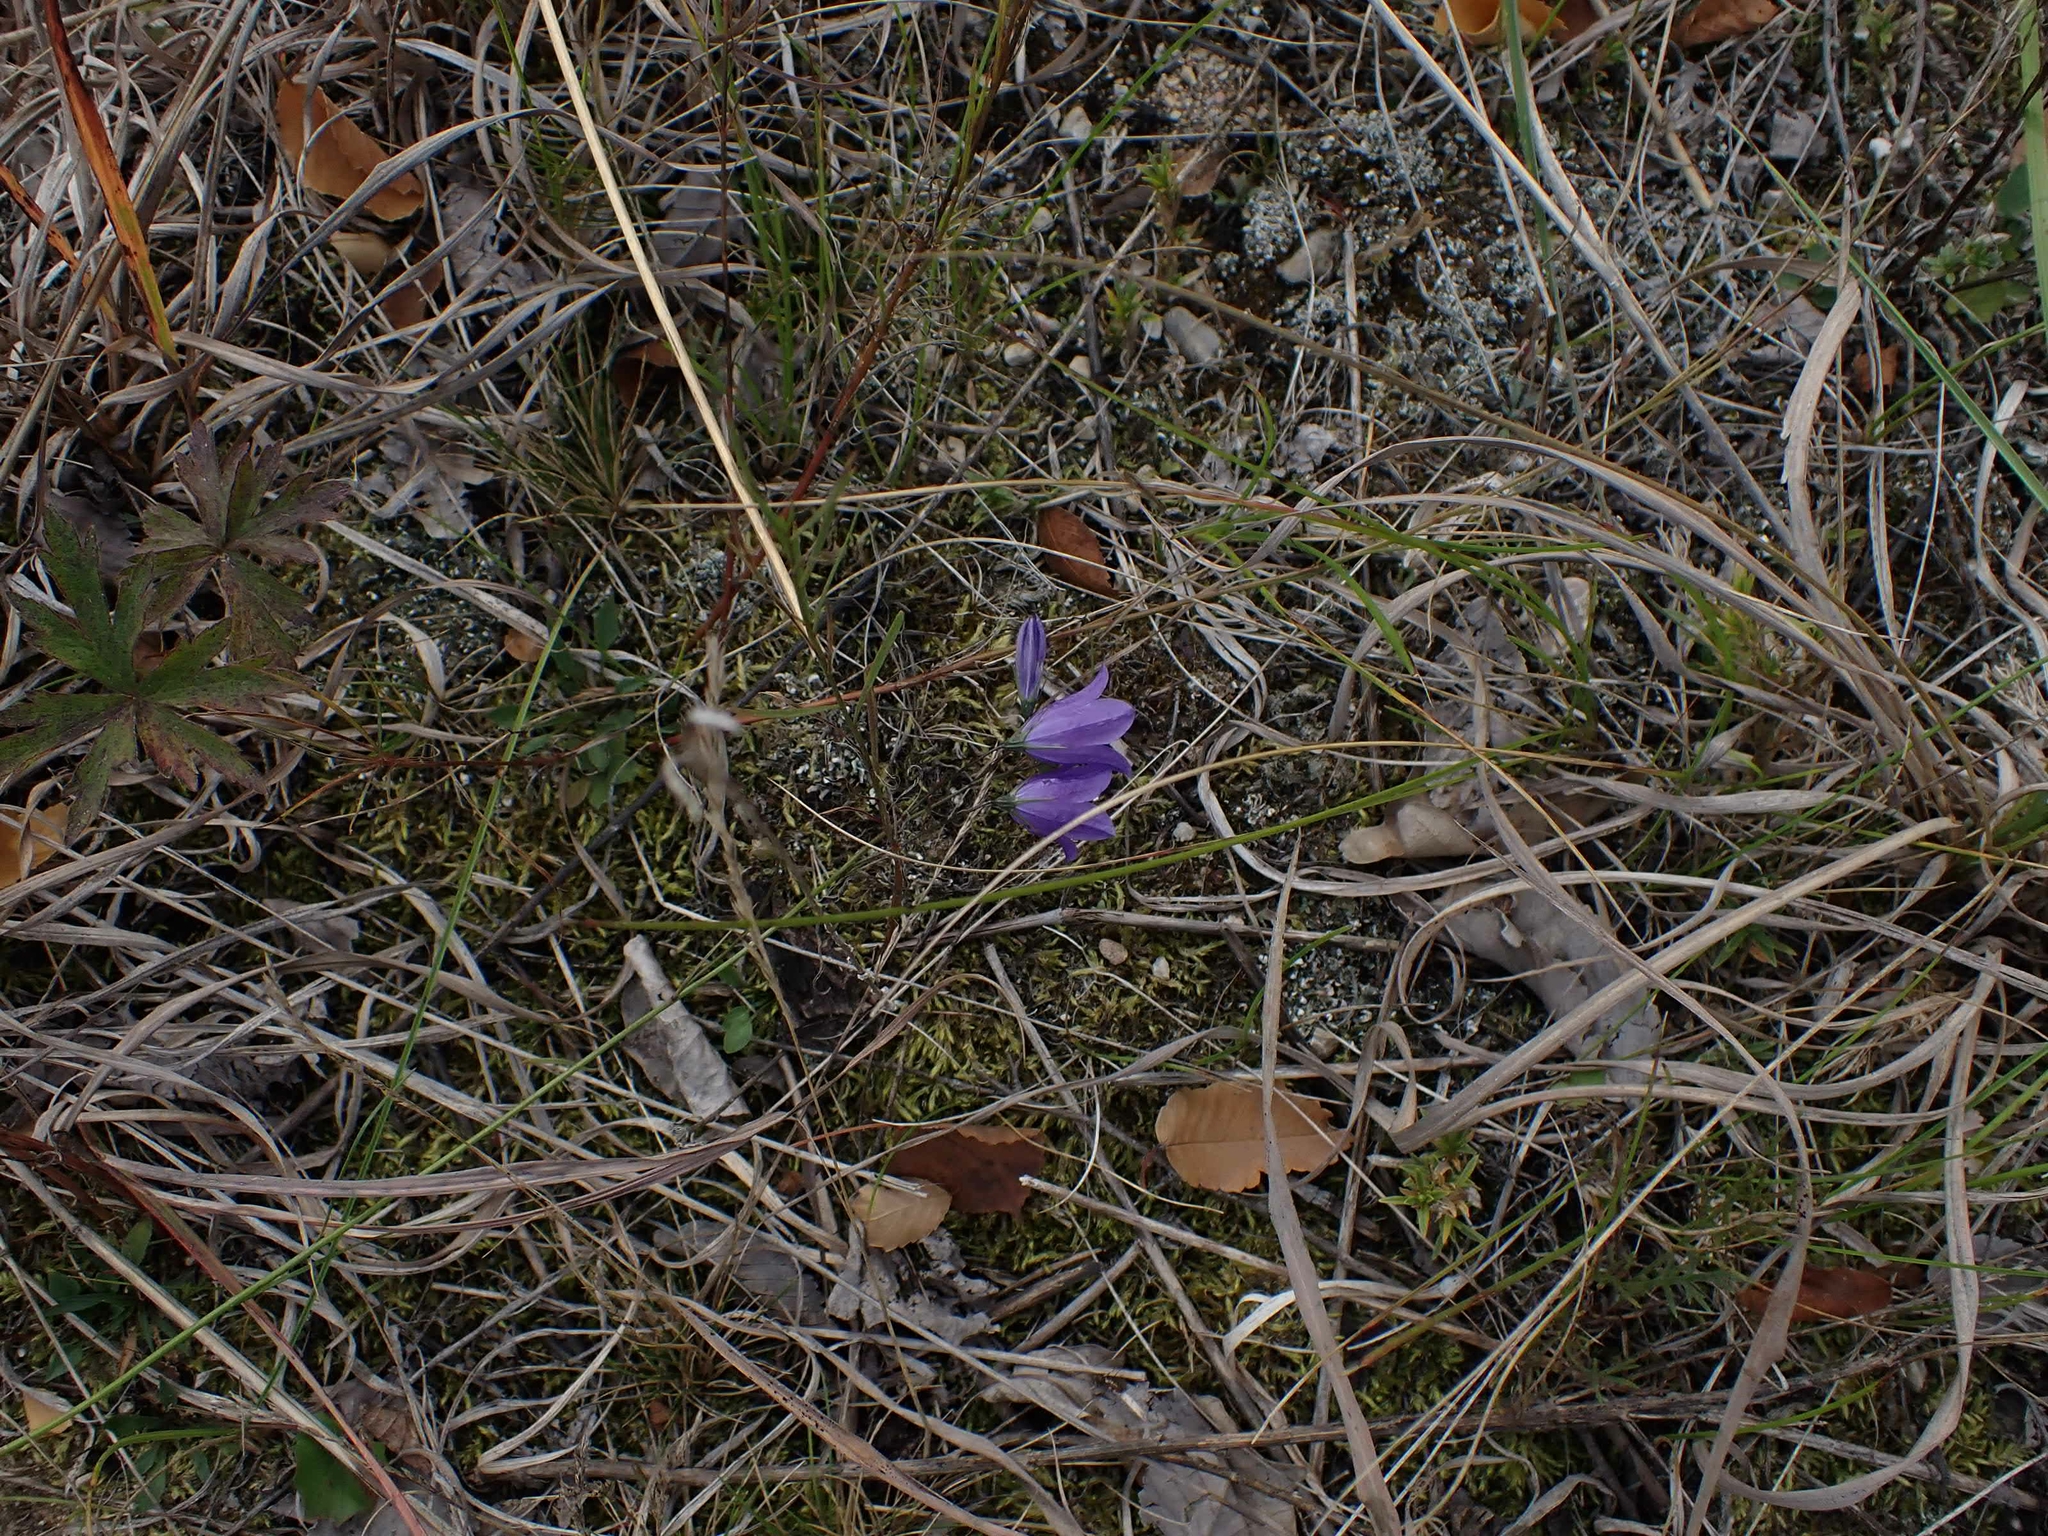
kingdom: Plantae
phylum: Tracheophyta
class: Magnoliopsida
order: Asterales
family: Campanulaceae
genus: Campanula
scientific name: Campanula petiolata
